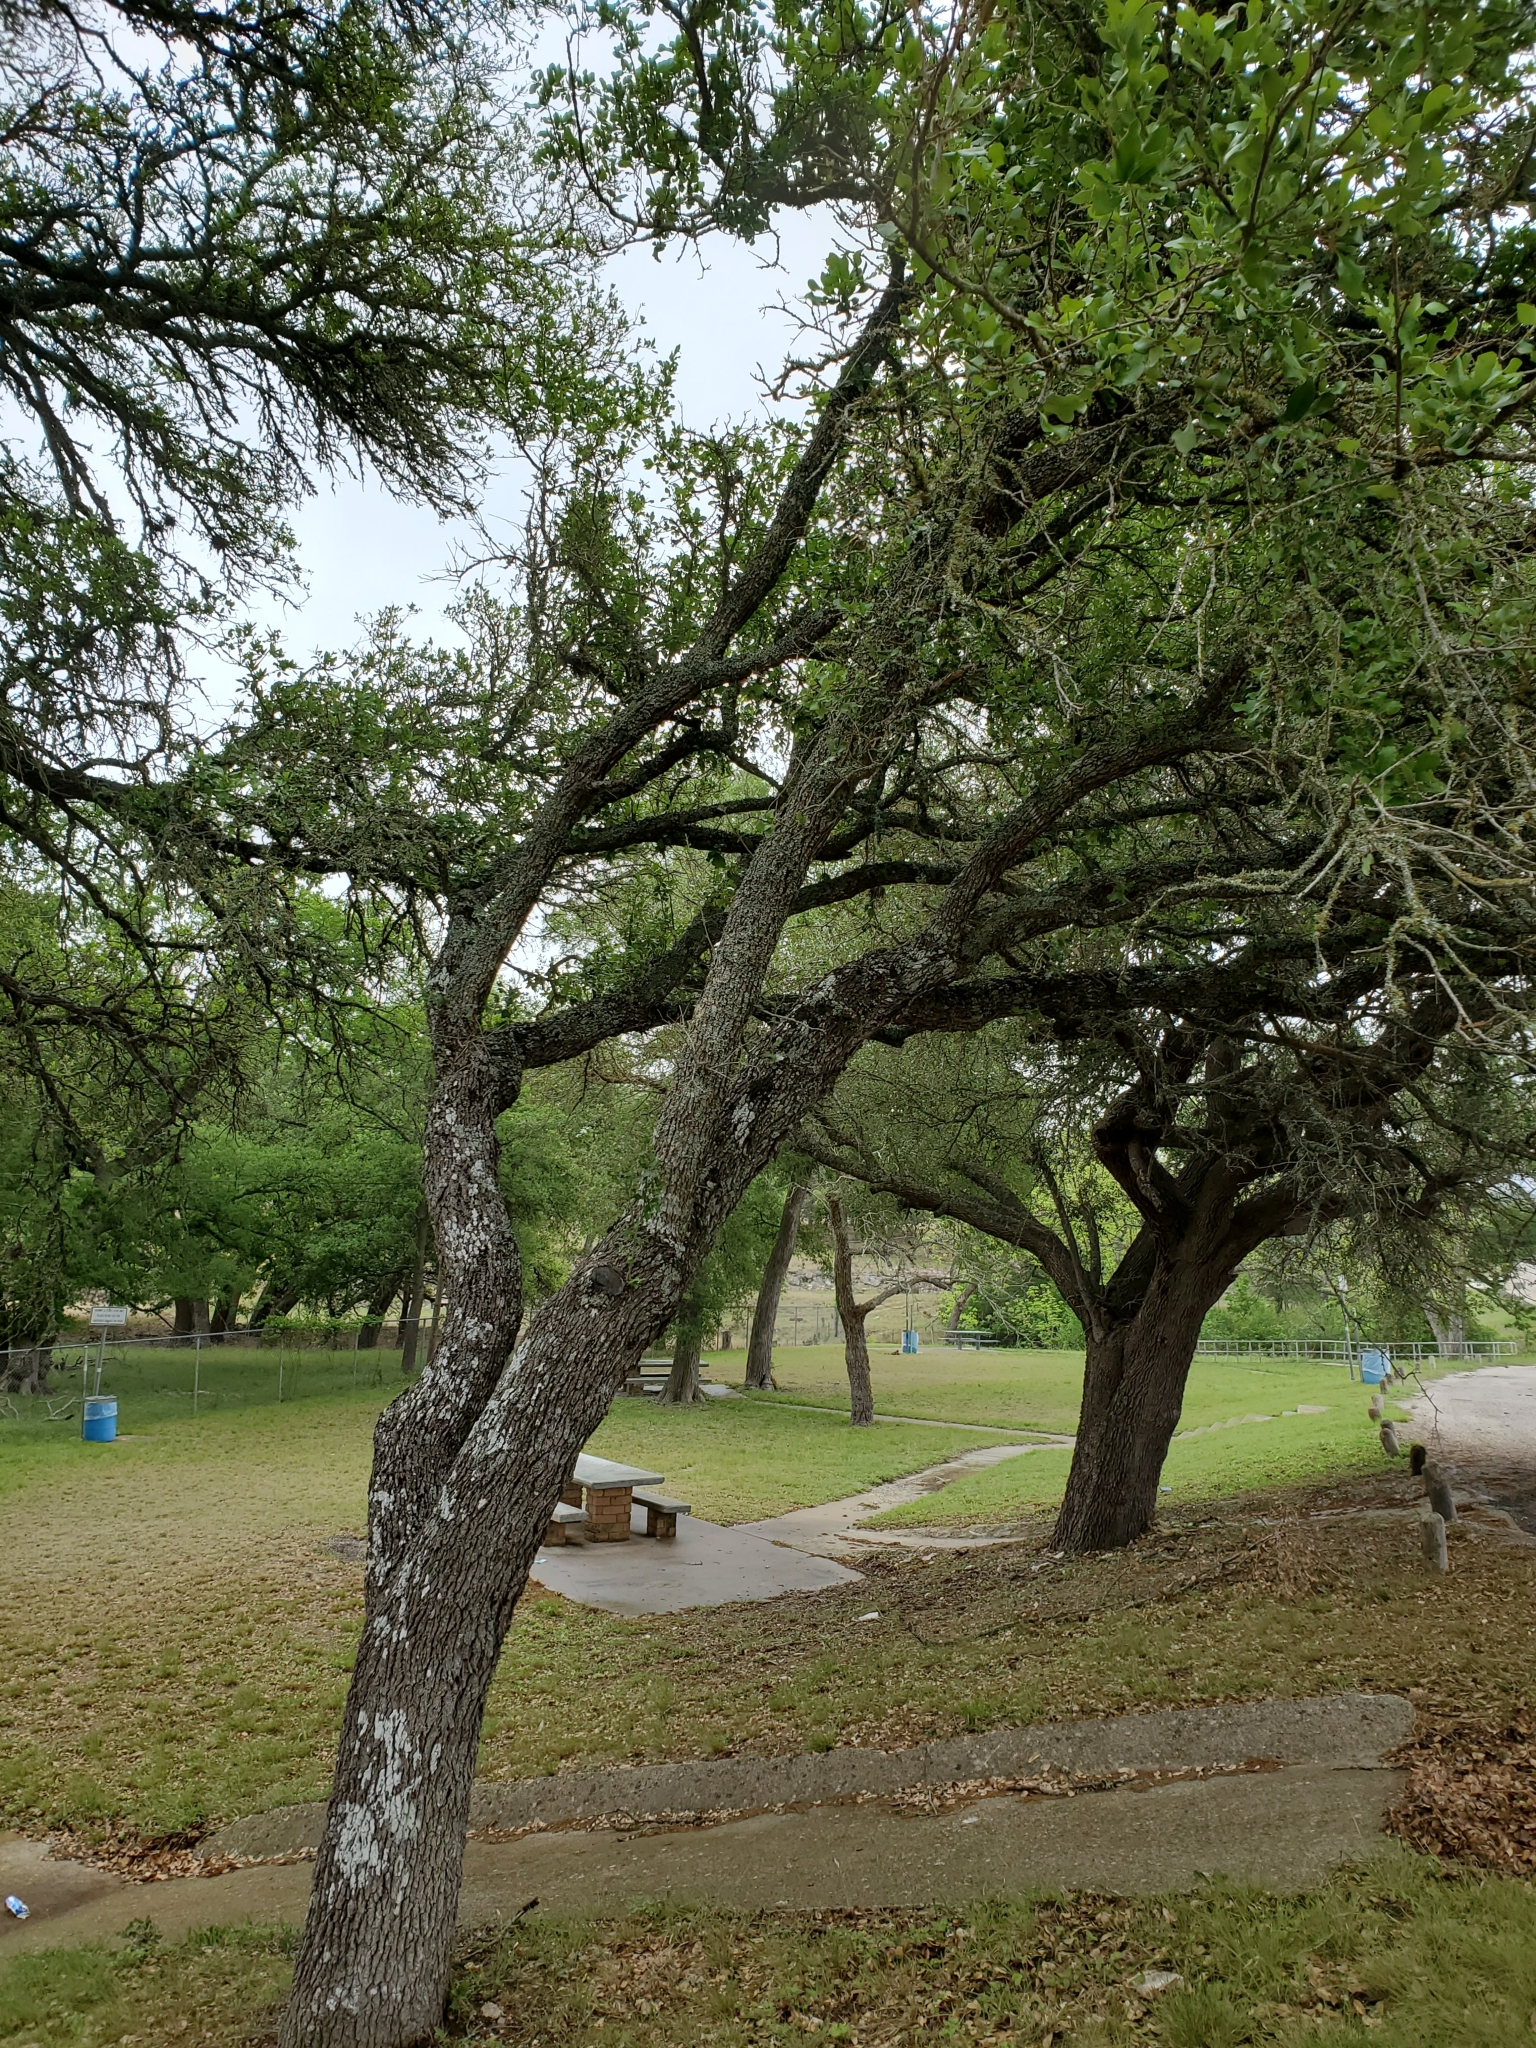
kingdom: Plantae
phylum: Tracheophyta
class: Magnoliopsida
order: Fagales
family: Fagaceae
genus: Quercus
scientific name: Quercus fusiformis
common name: Texas live oak
